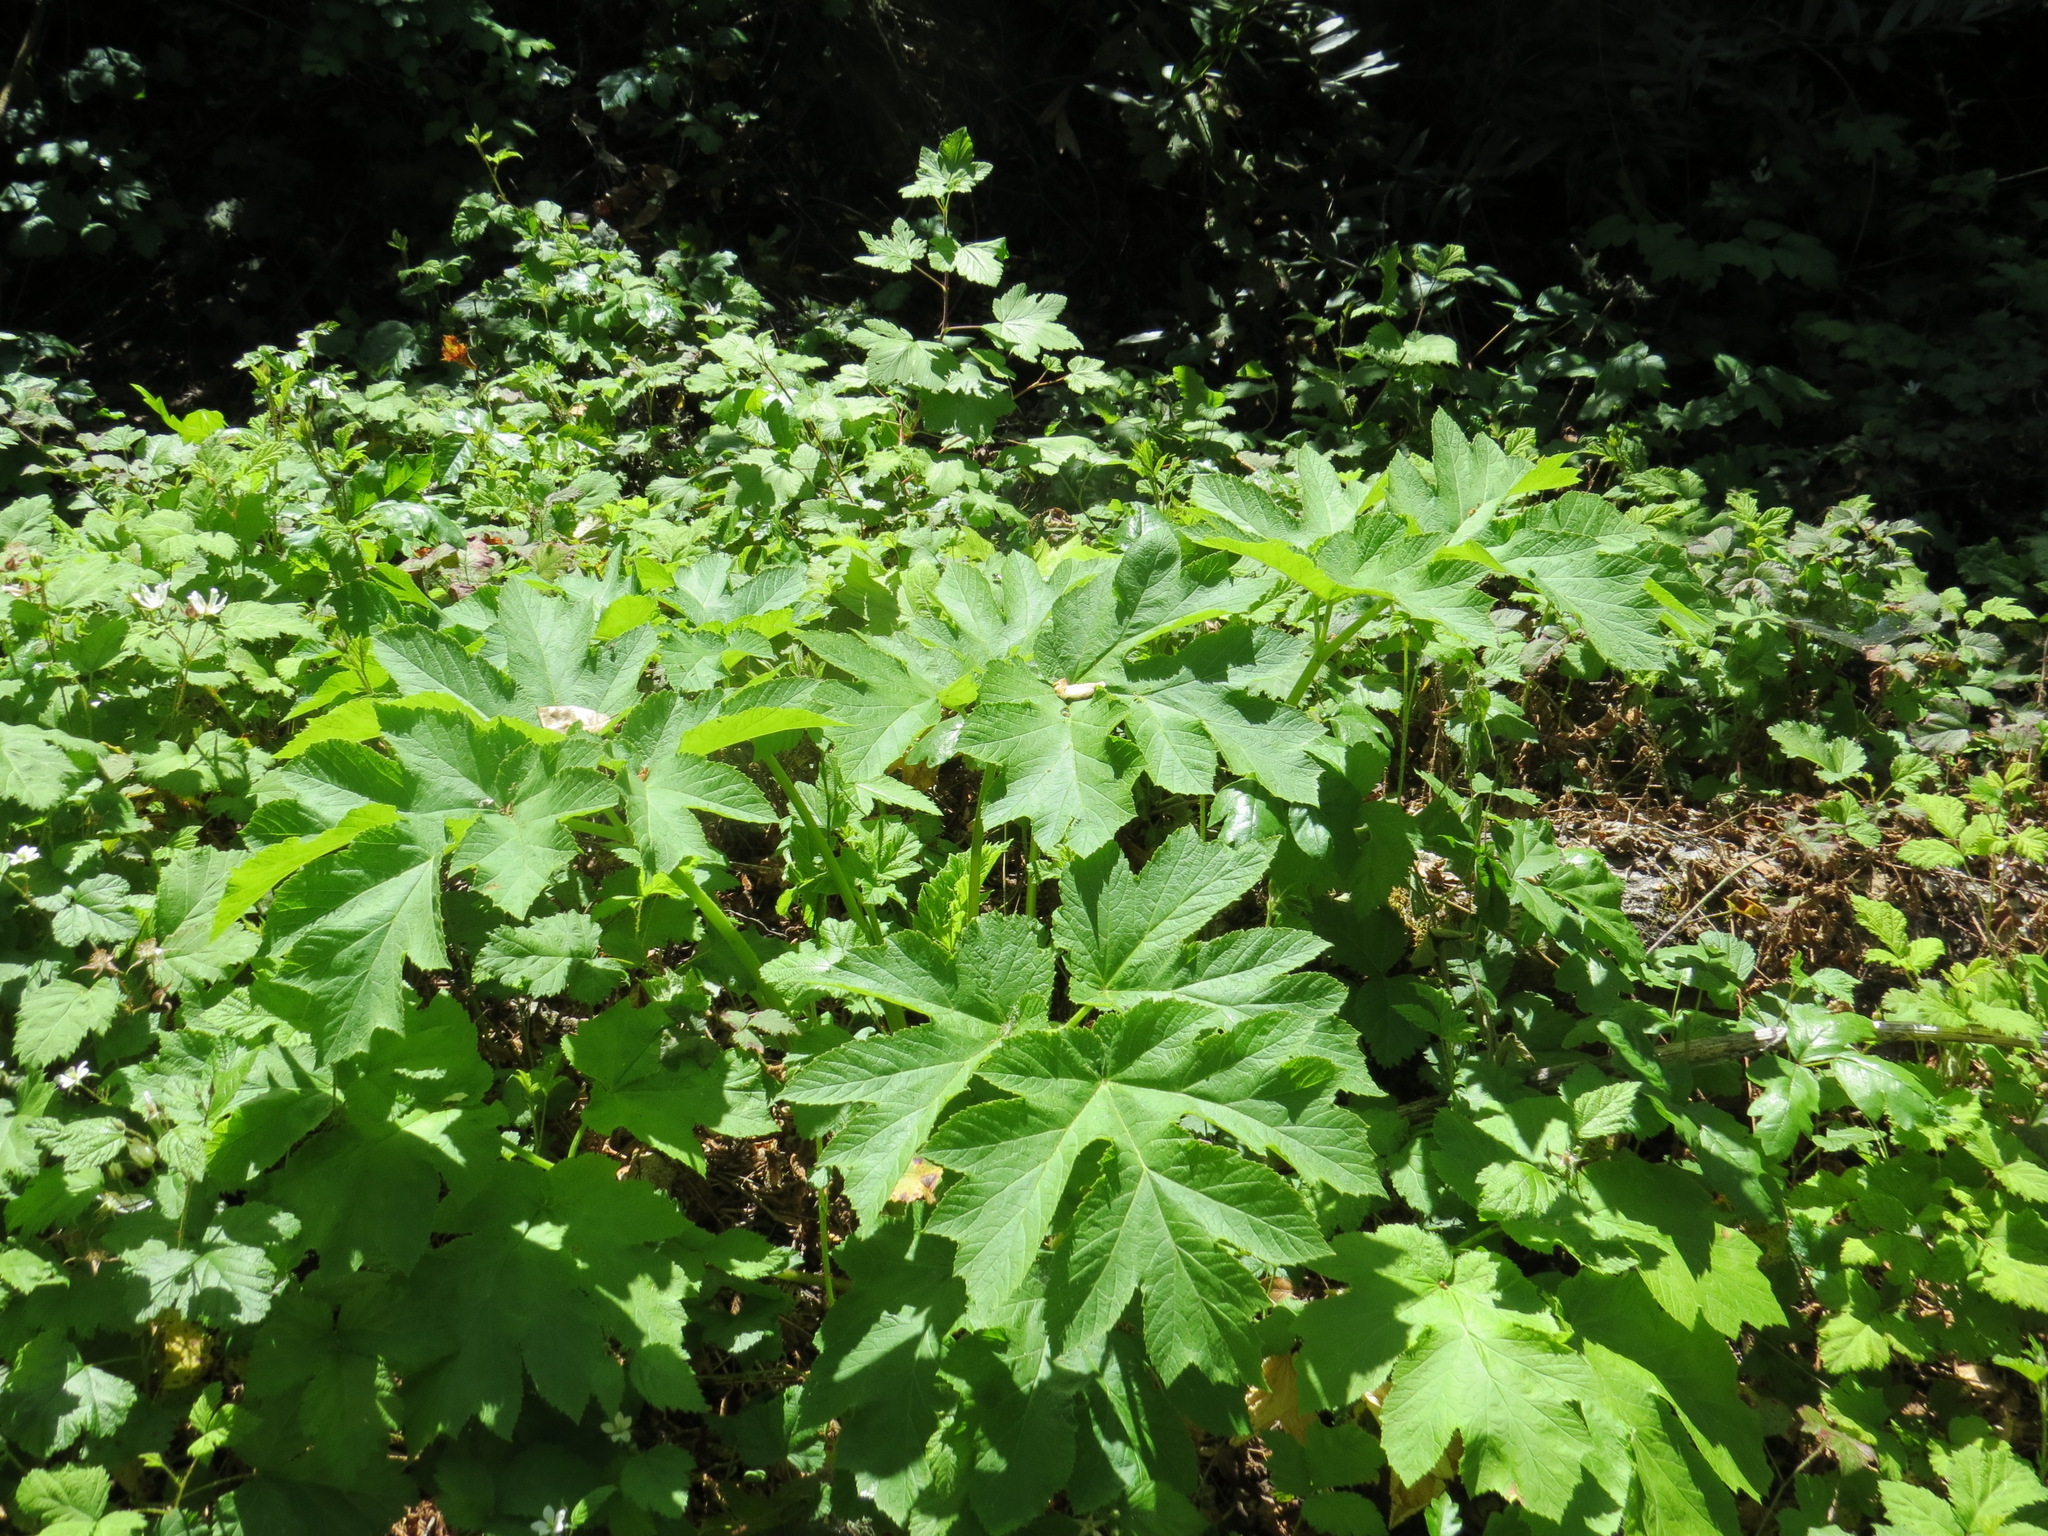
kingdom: Plantae
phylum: Tracheophyta
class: Magnoliopsida
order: Apiales
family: Apiaceae
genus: Heracleum
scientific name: Heracleum maximum
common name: American cow parsnip
